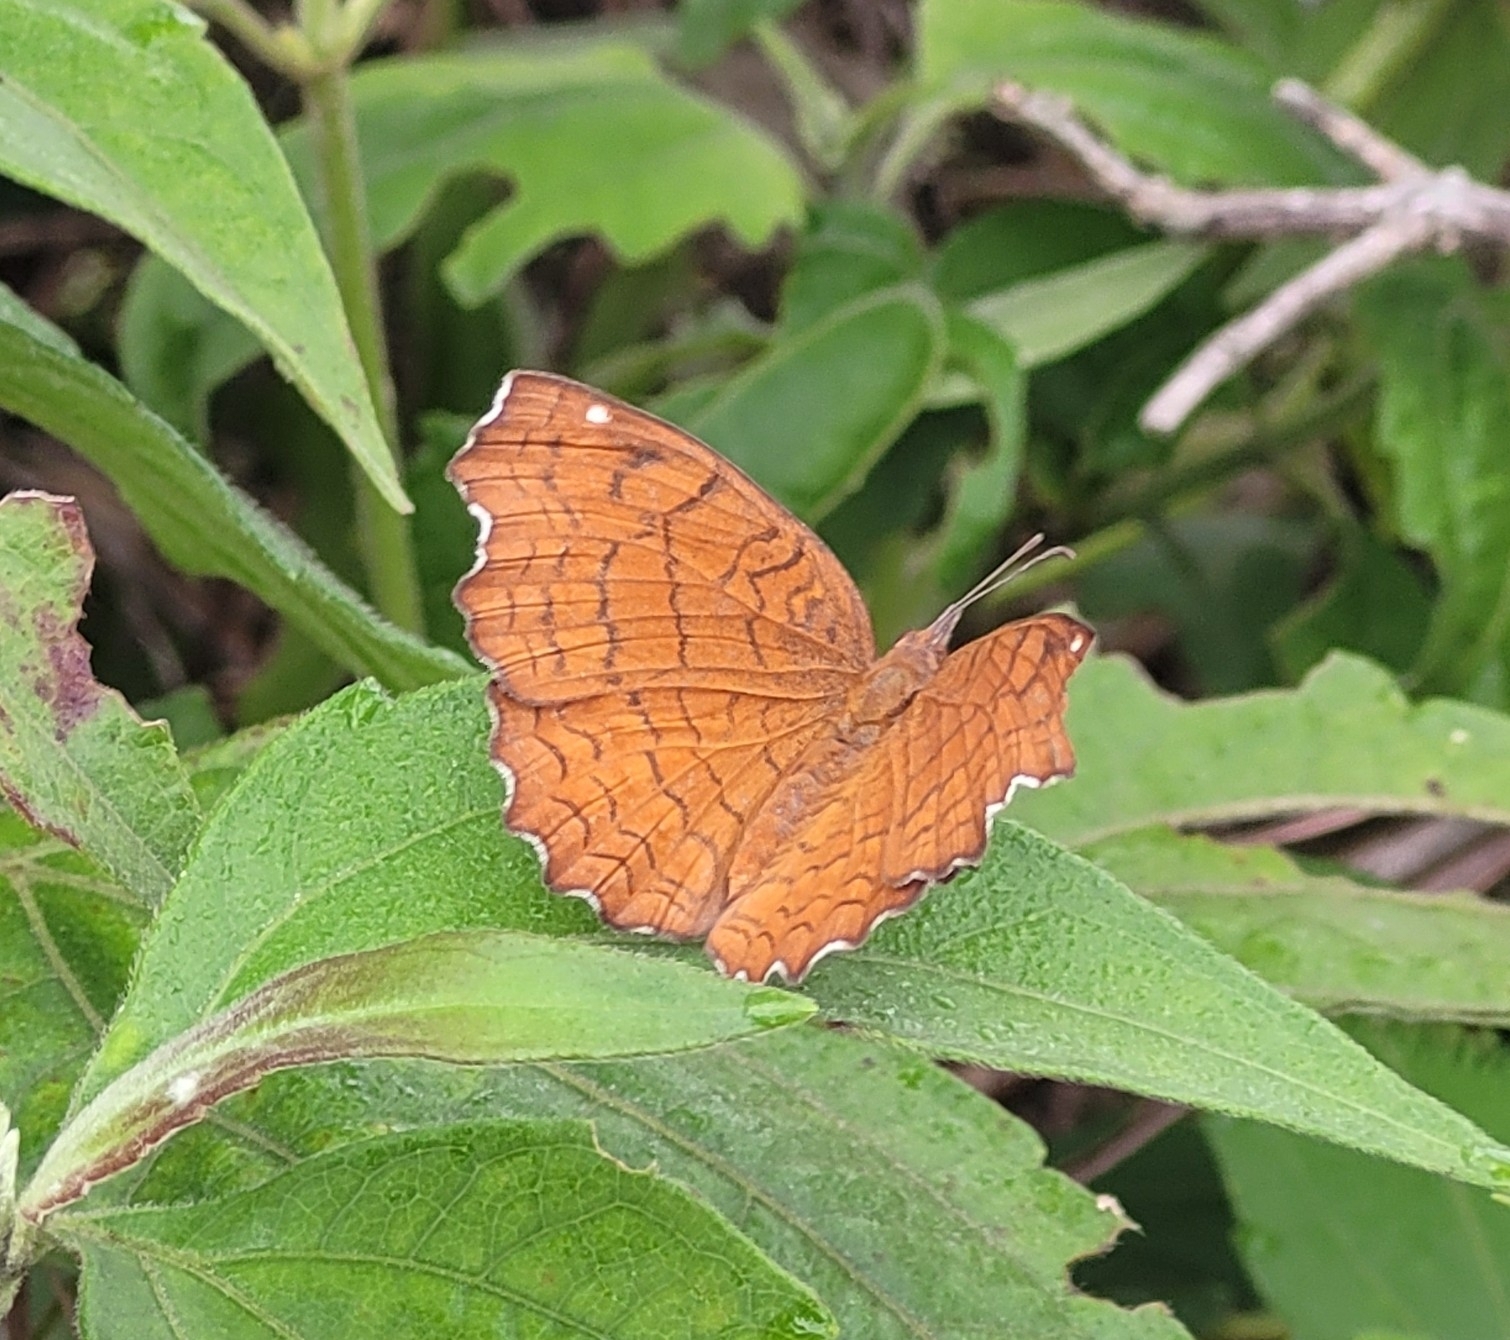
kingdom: Animalia
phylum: Arthropoda
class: Insecta
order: Lepidoptera
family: Nymphalidae
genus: Ariadne
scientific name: Ariadne ariadne
